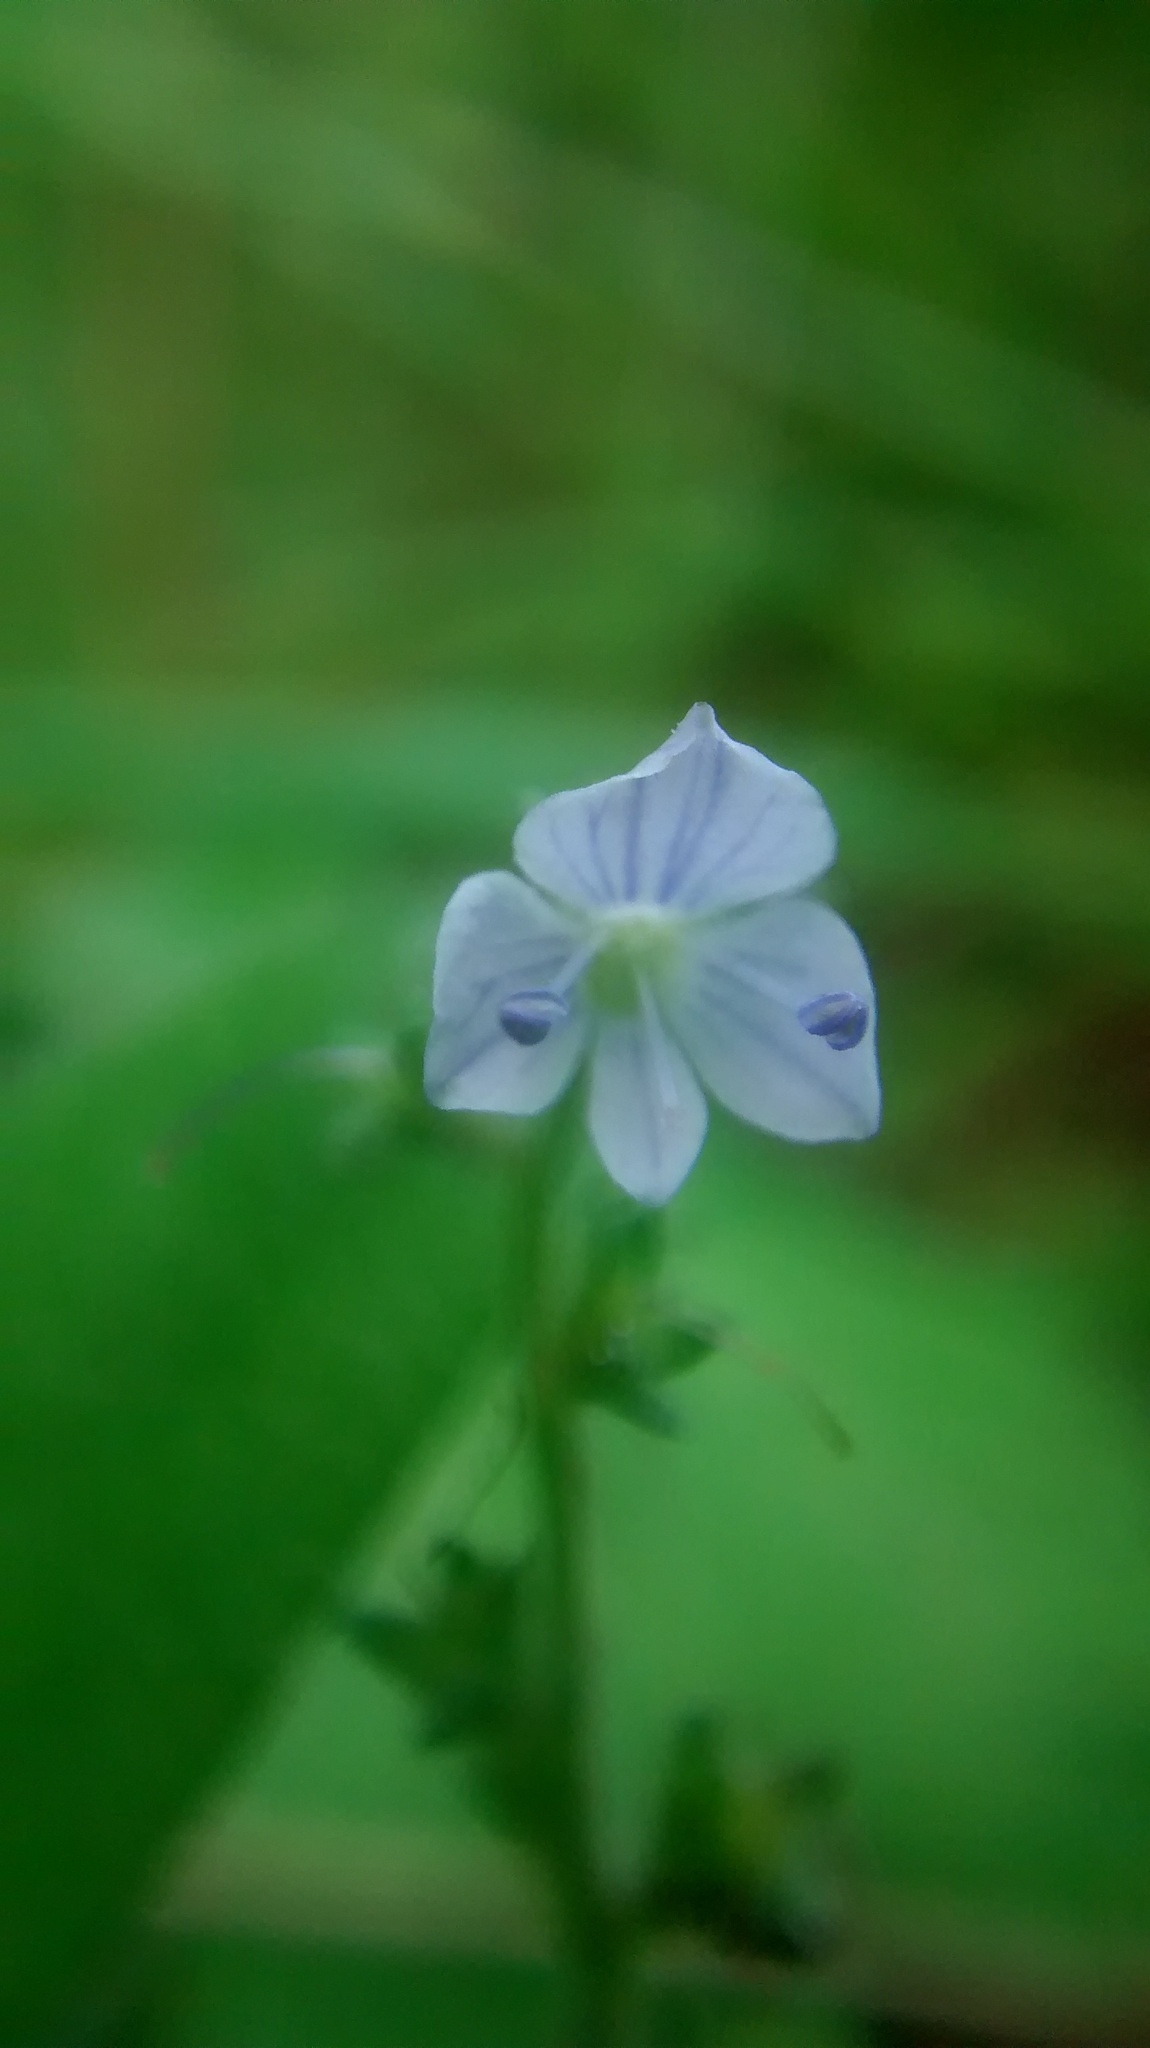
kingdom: Plantae
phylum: Tracheophyta
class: Magnoliopsida
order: Lamiales
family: Plantaginaceae
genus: Veronica
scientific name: Veronica serpyllifolia
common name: Thyme-leaved speedwell
